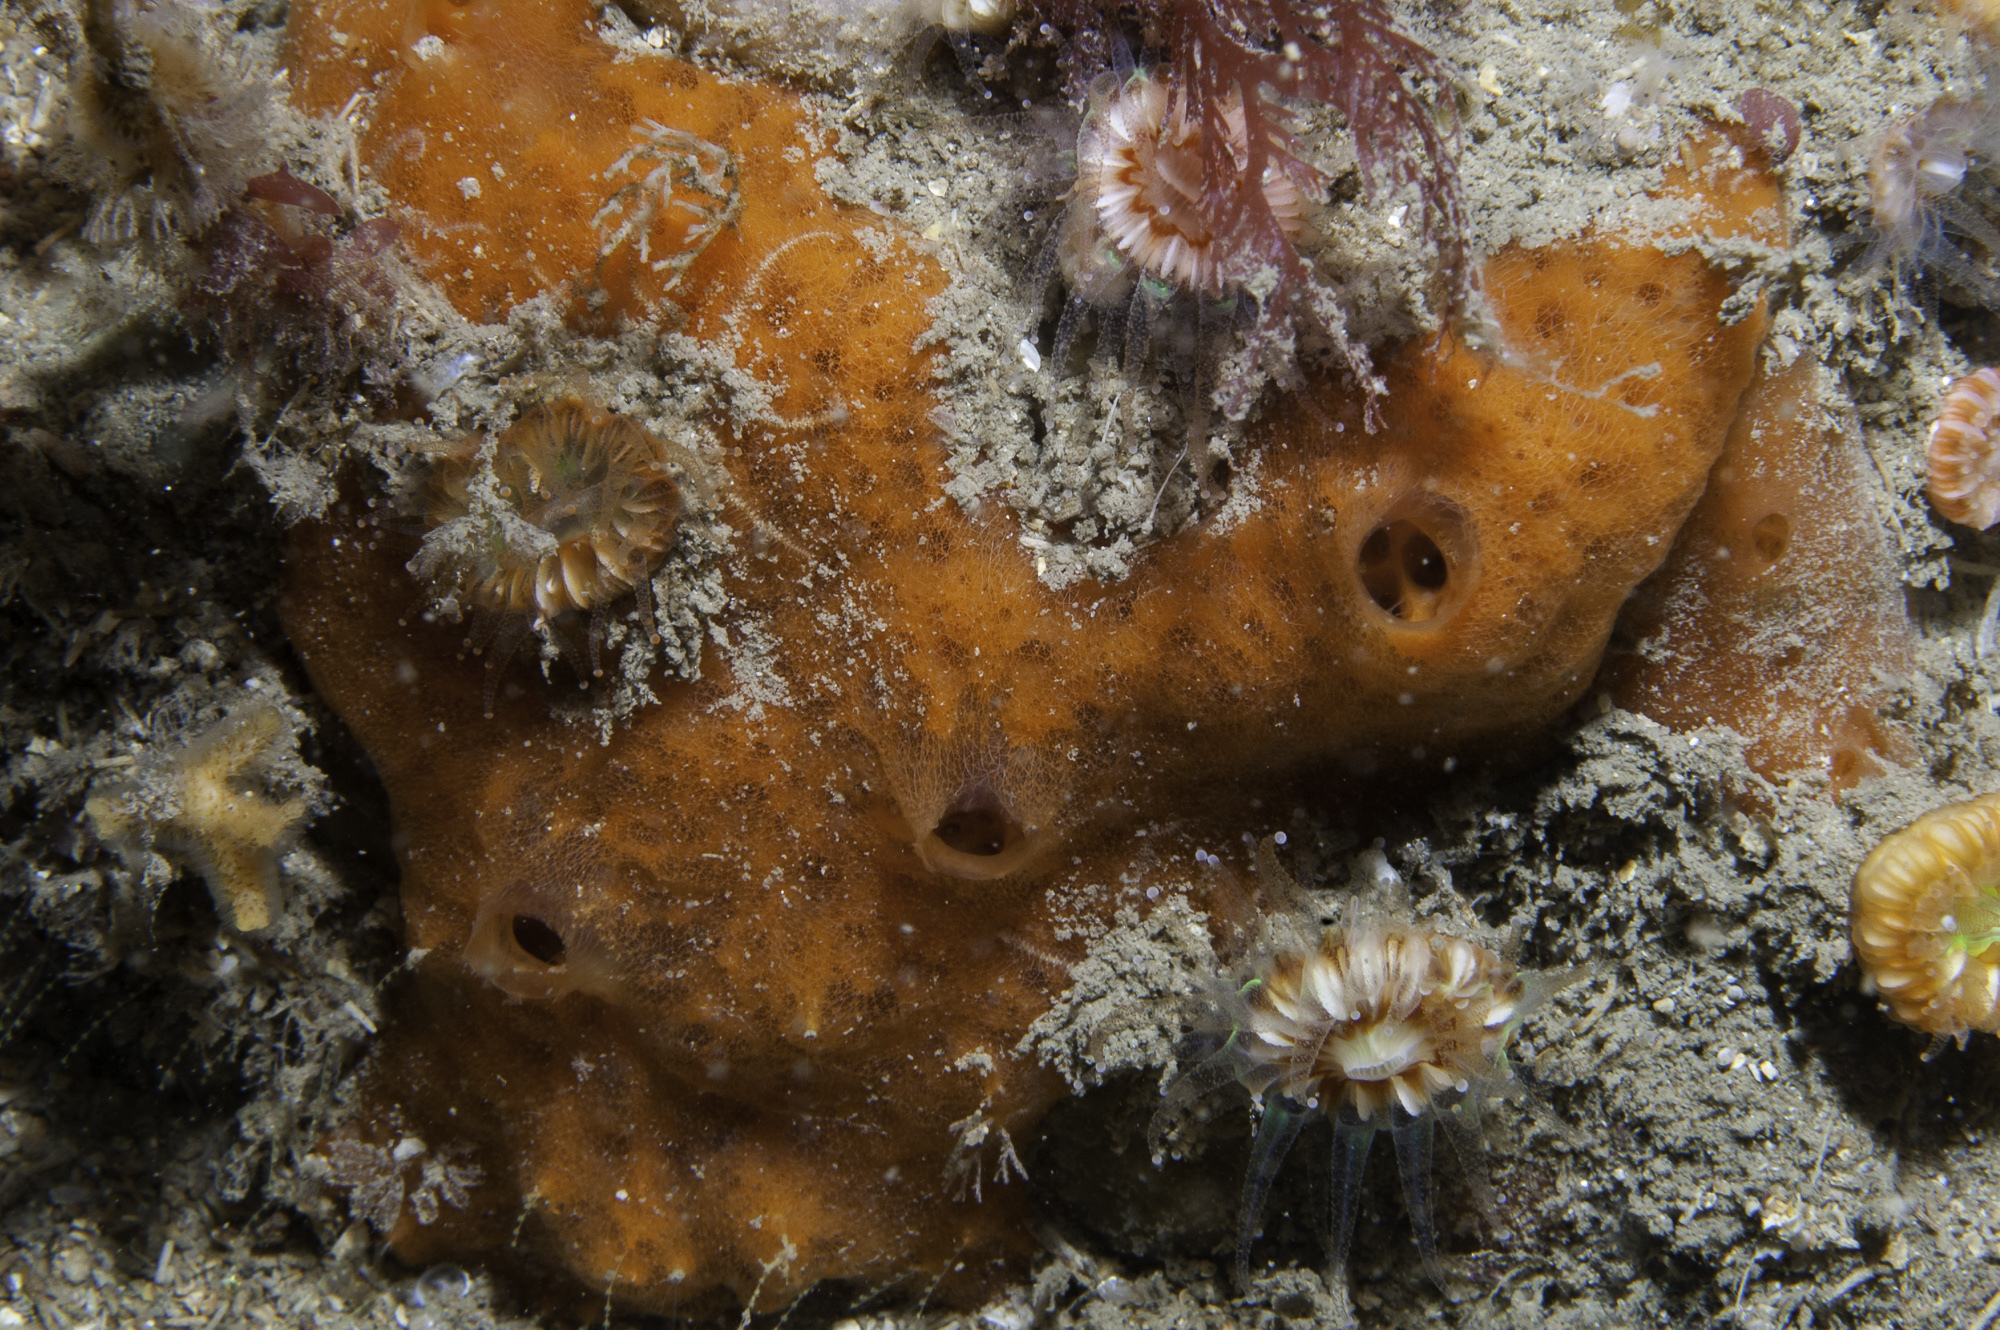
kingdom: Animalia
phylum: Porifera
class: Demospongiae
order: Poecilosclerida
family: Mycalidae
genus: Mycale
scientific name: Mycale rotalis
